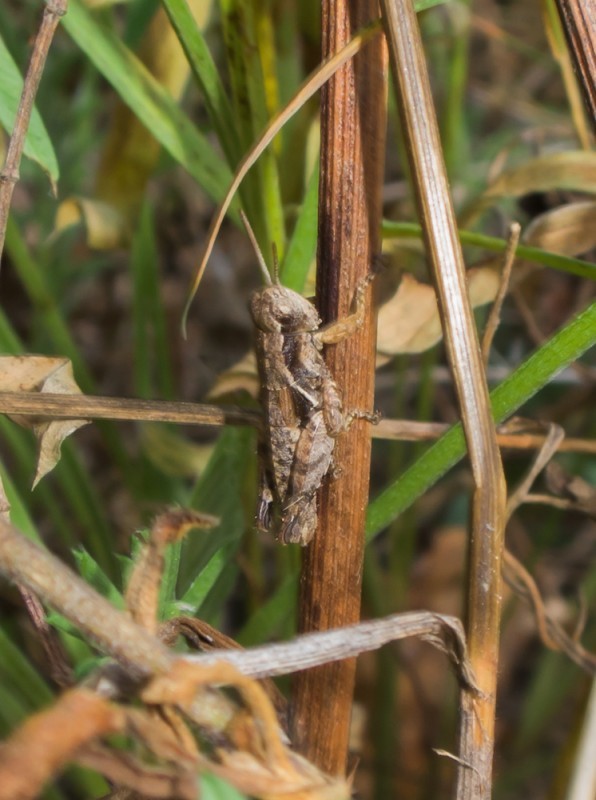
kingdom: Animalia
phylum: Arthropoda
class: Insecta
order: Orthoptera
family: Acrididae
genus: Pezotettix
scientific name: Pezotettix giornae
